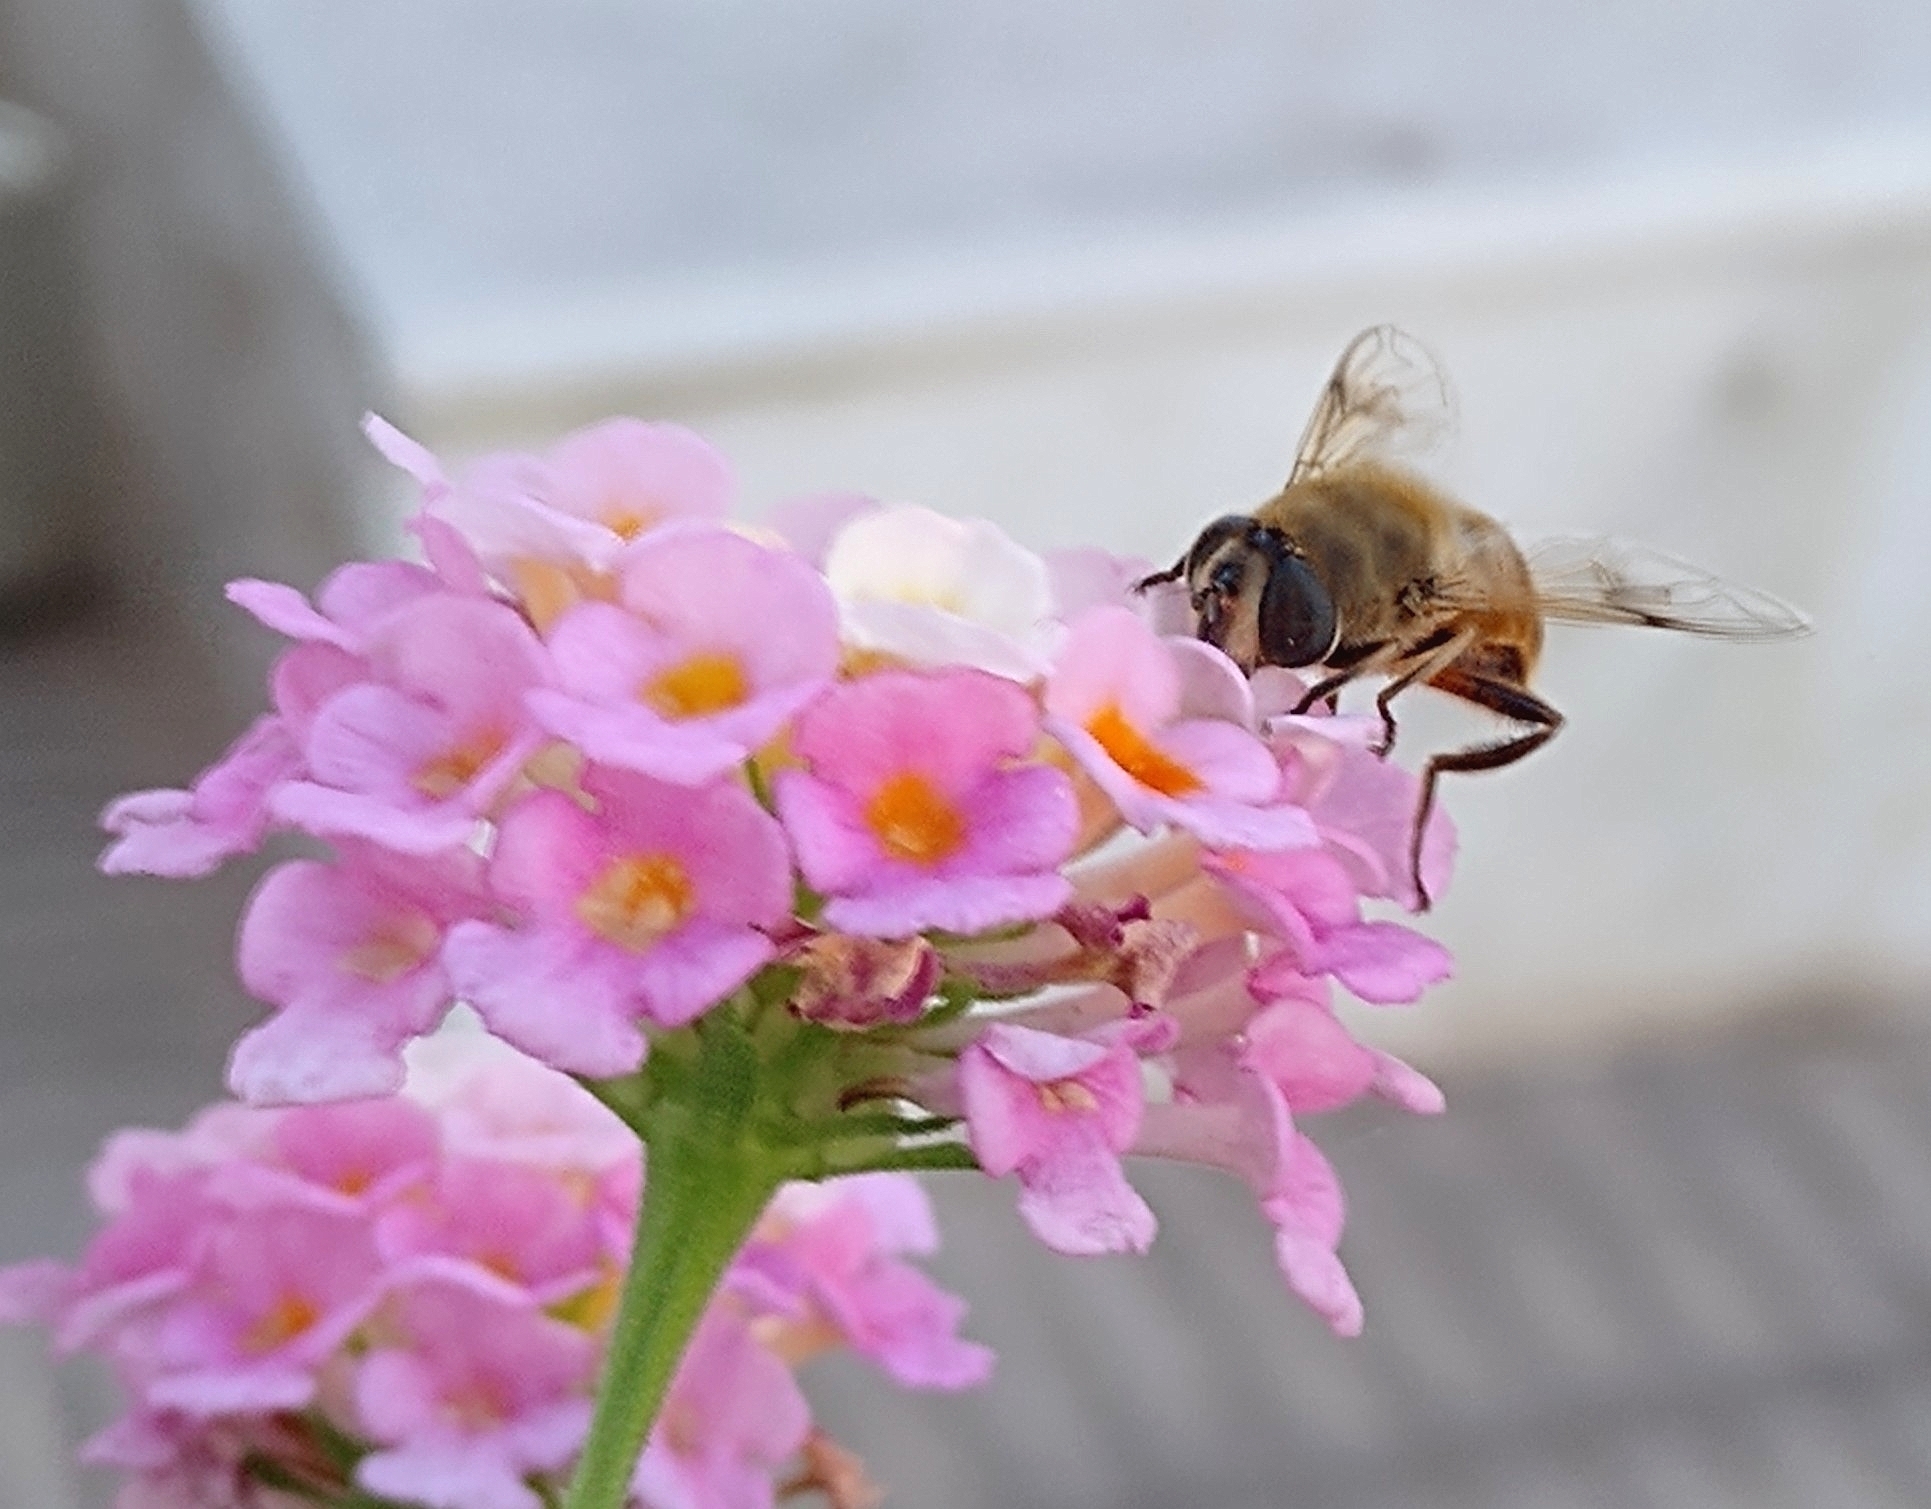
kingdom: Animalia
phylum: Arthropoda
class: Insecta
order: Diptera
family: Syrphidae
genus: Eristalis
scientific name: Eristalis tenax
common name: Drone fly
